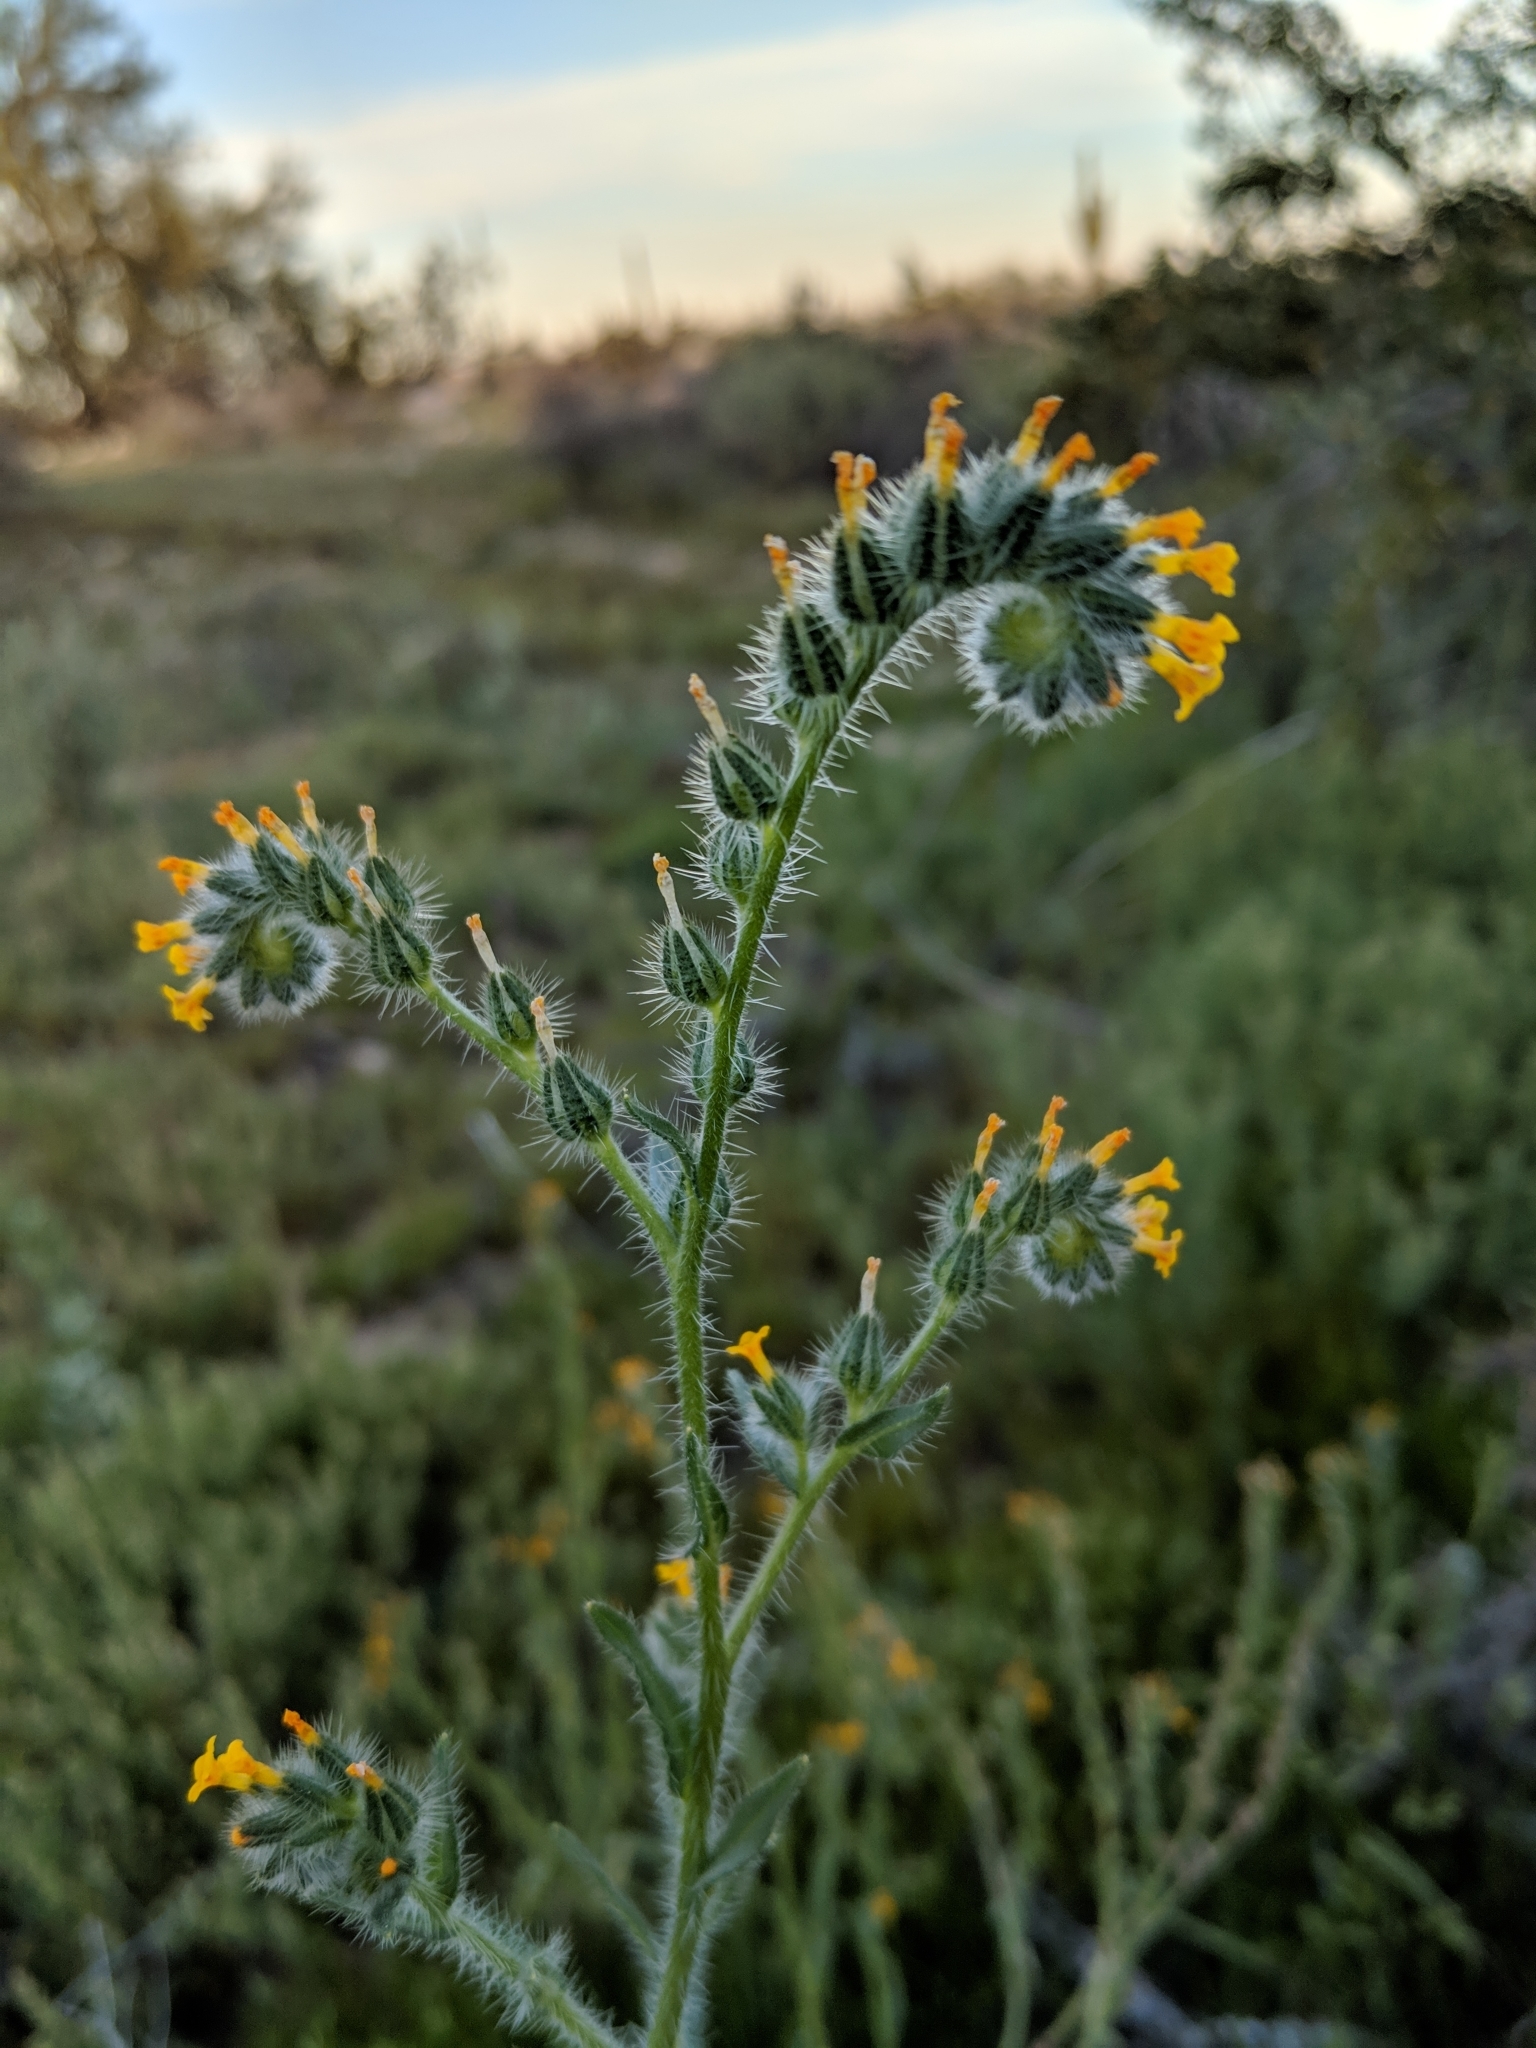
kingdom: Plantae
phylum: Tracheophyta
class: Magnoliopsida
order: Boraginales
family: Boraginaceae
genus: Amsinckia
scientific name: Amsinckia menziesii
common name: Menzies' fiddleneck
